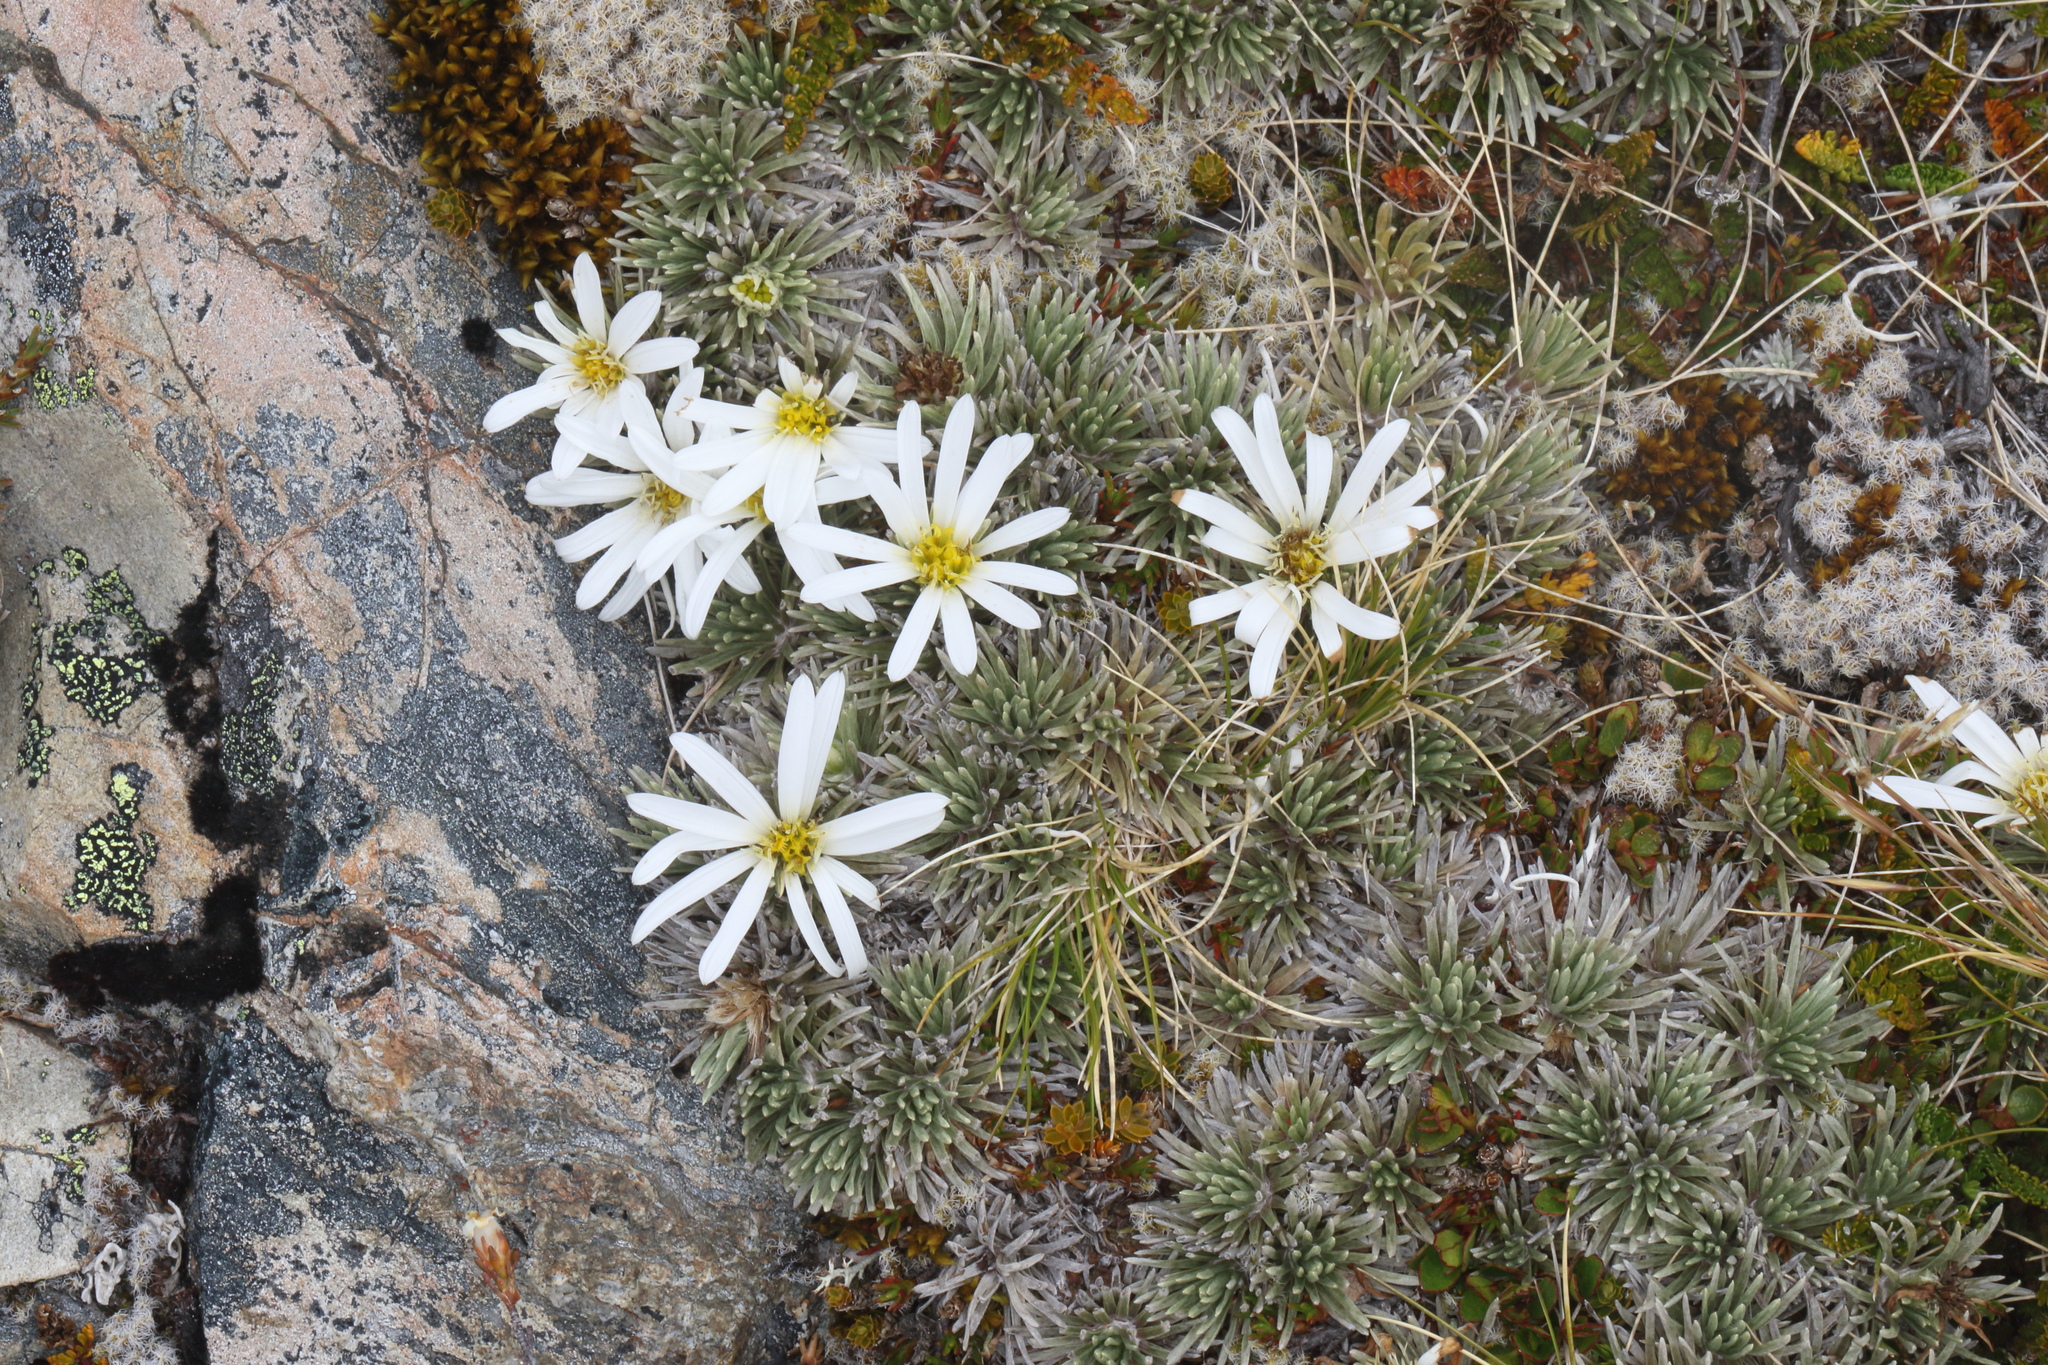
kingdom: Plantae
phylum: Tracheophyta
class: Magnoliopsida
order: Asterales
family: Asteraceae
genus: Celmisia
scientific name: Celmisia sessiliflora
